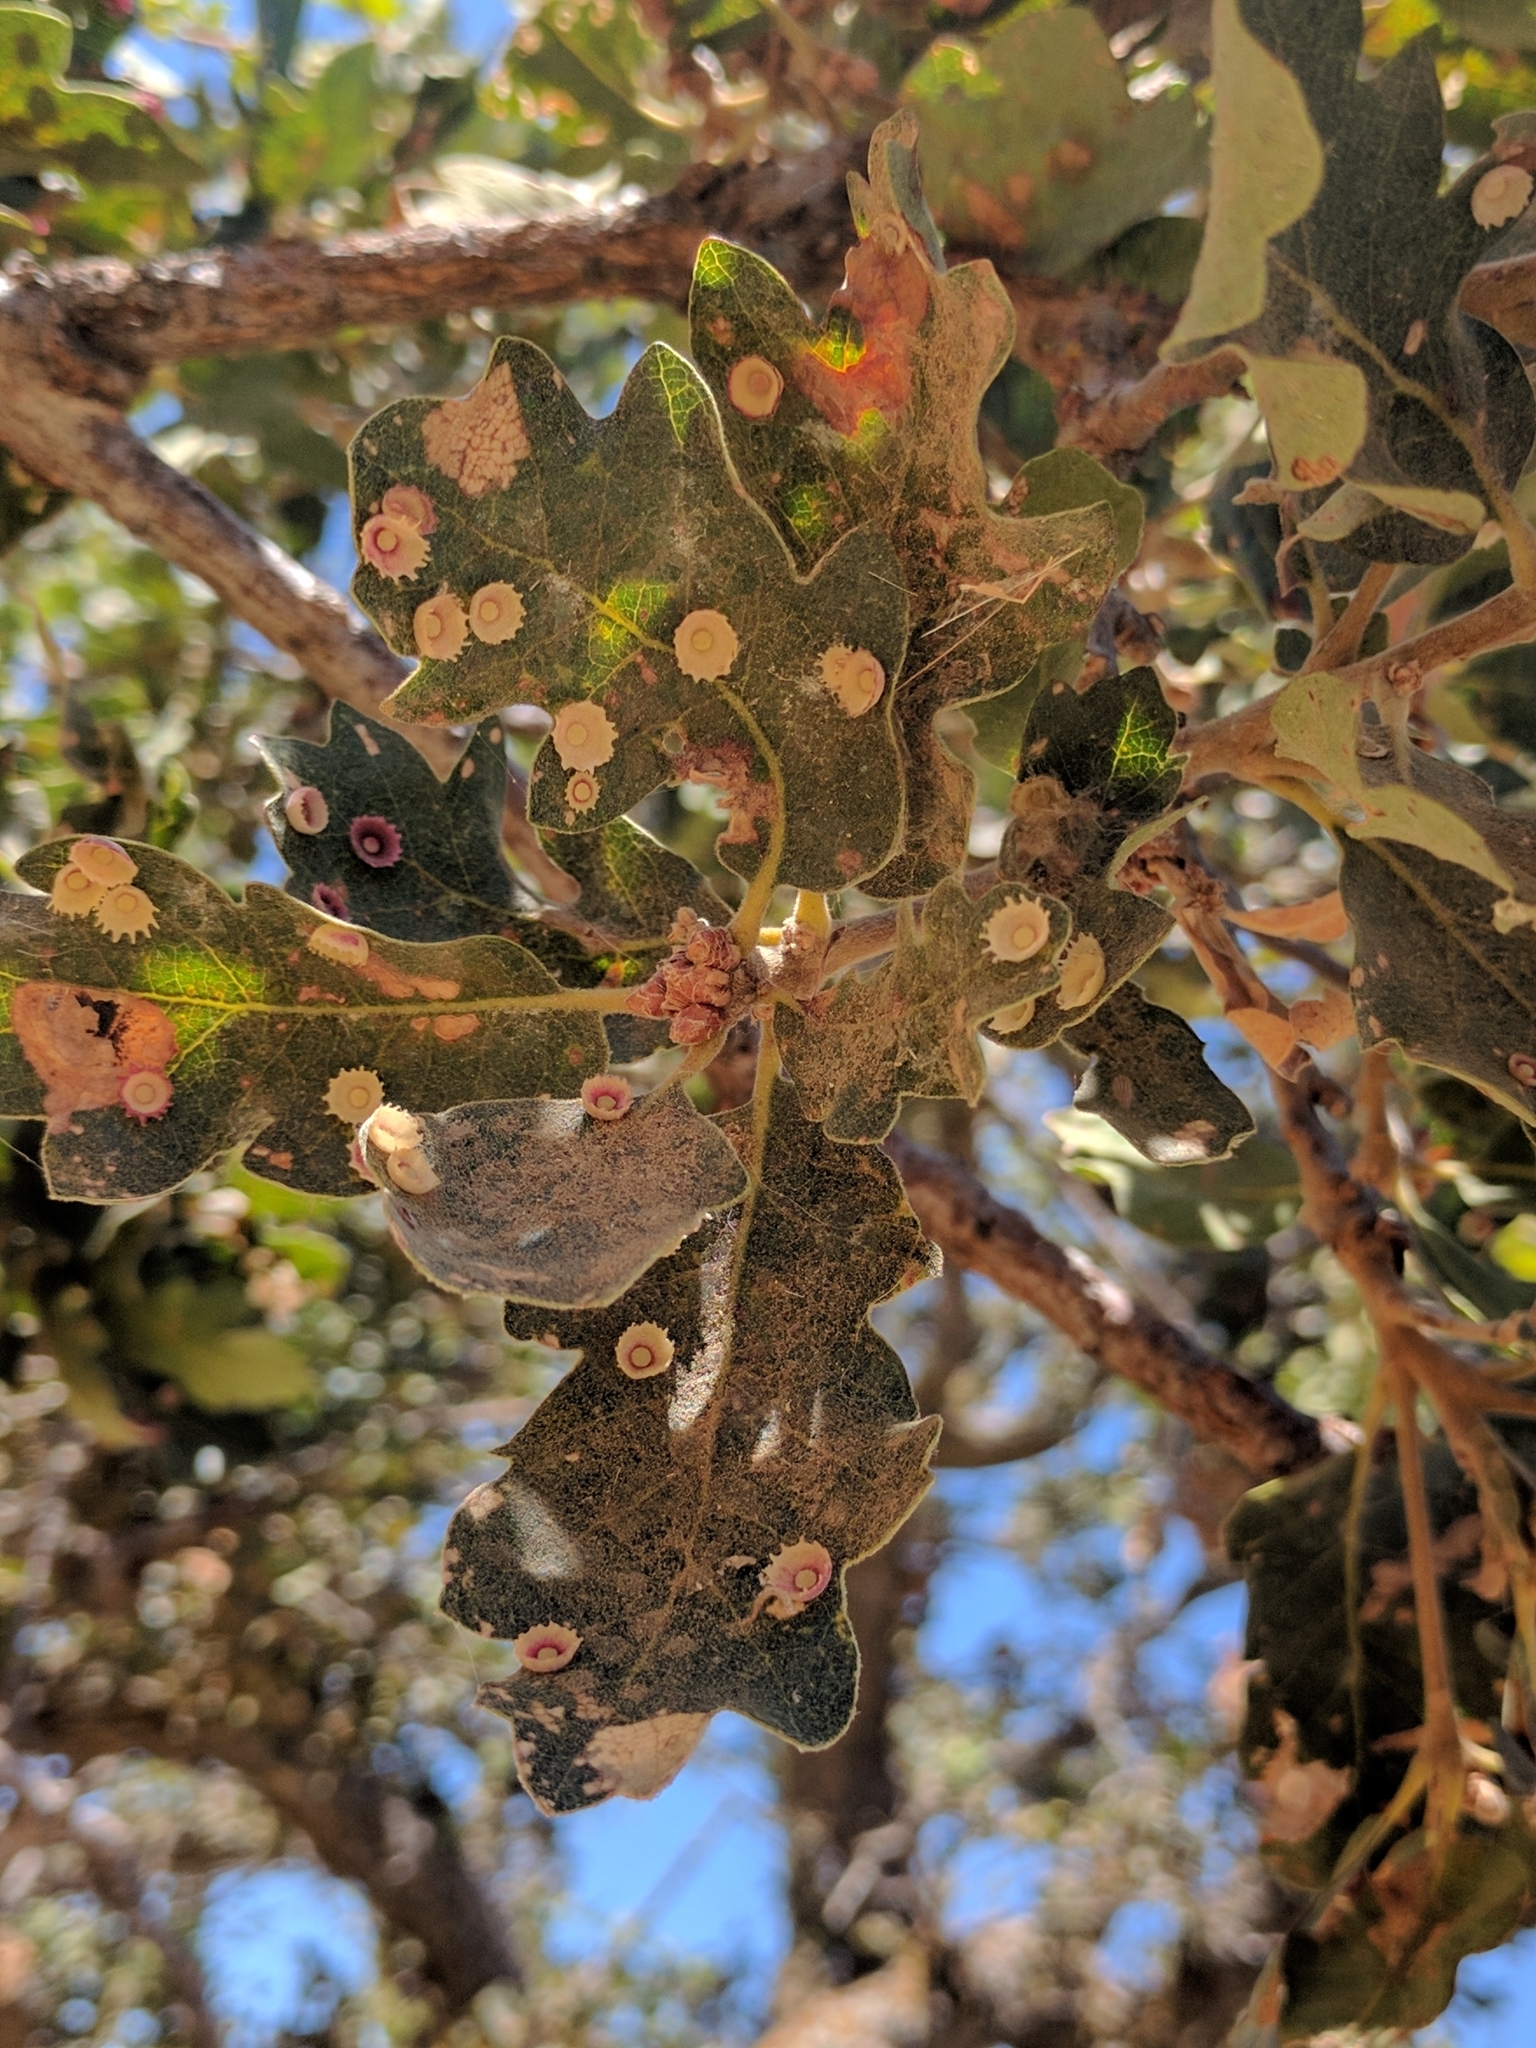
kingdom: Animalia
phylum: Arthropoda
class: Insecta
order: Hymenoptera
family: Cynipidae
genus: Andricus
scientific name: Andricus
